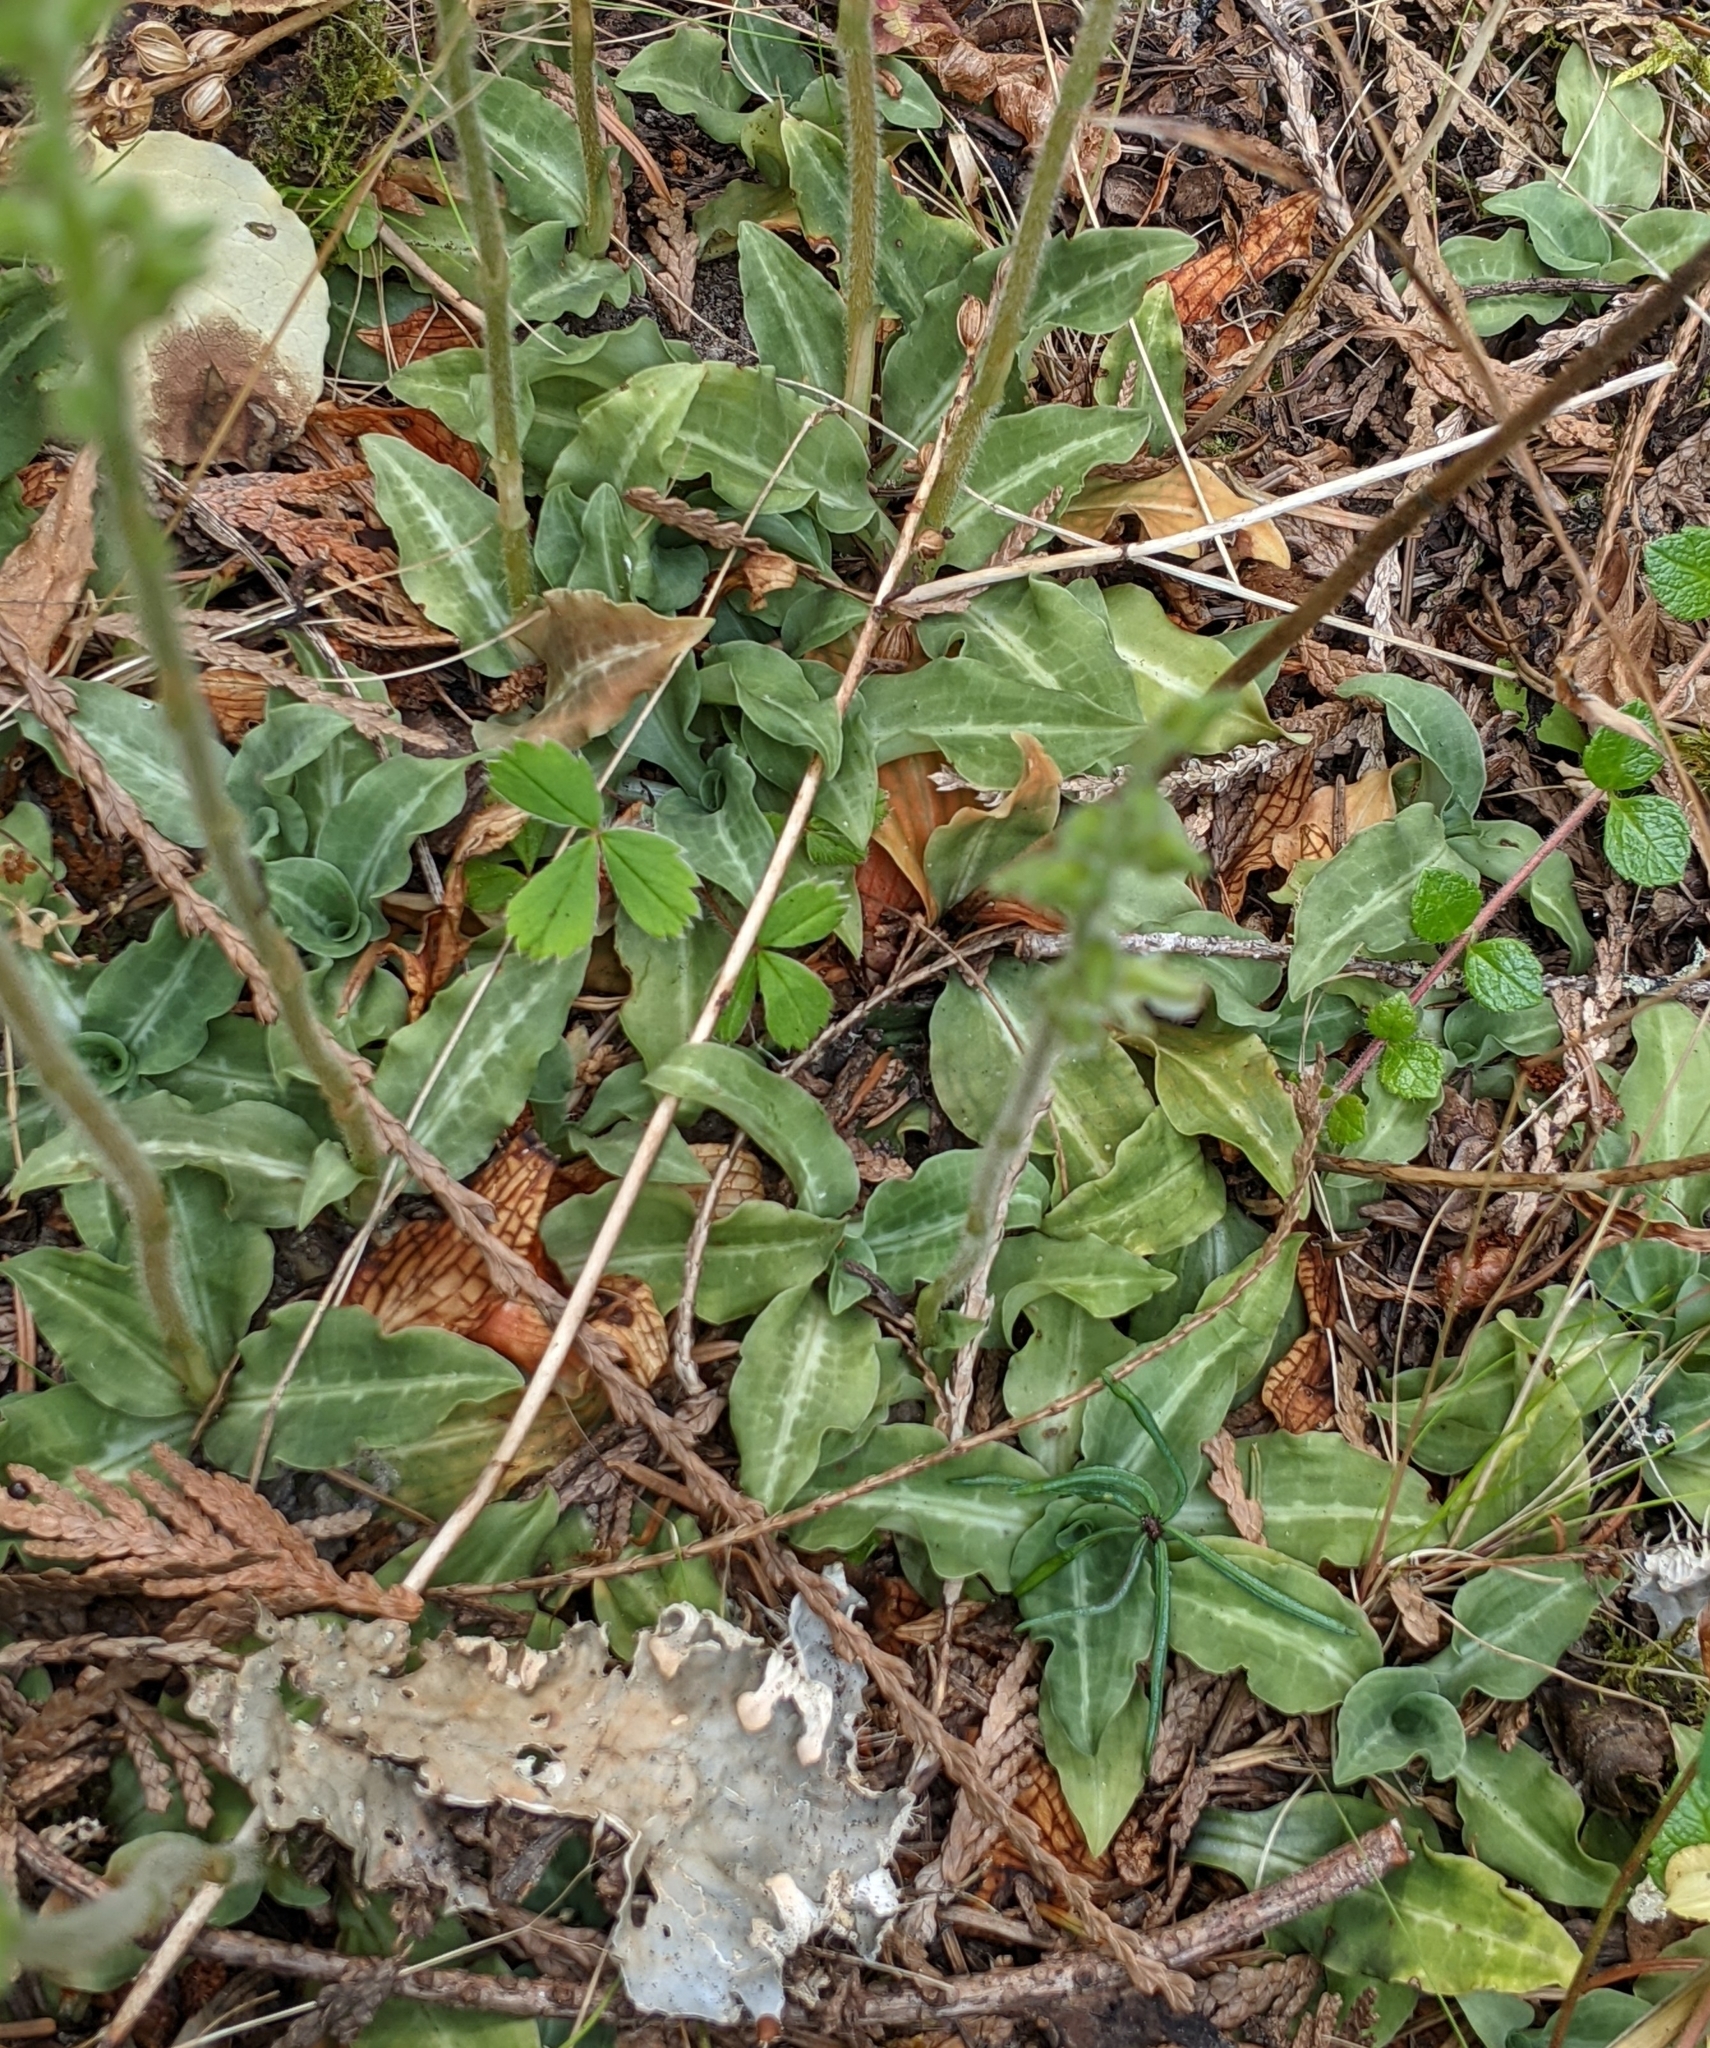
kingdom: Plantae
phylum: Tracheophyta
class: Liliopsida
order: Asparagales
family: Orchidaceae
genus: Goodyera
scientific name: Goodyera oblongifolia
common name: Giant rattlesnake-plantain
